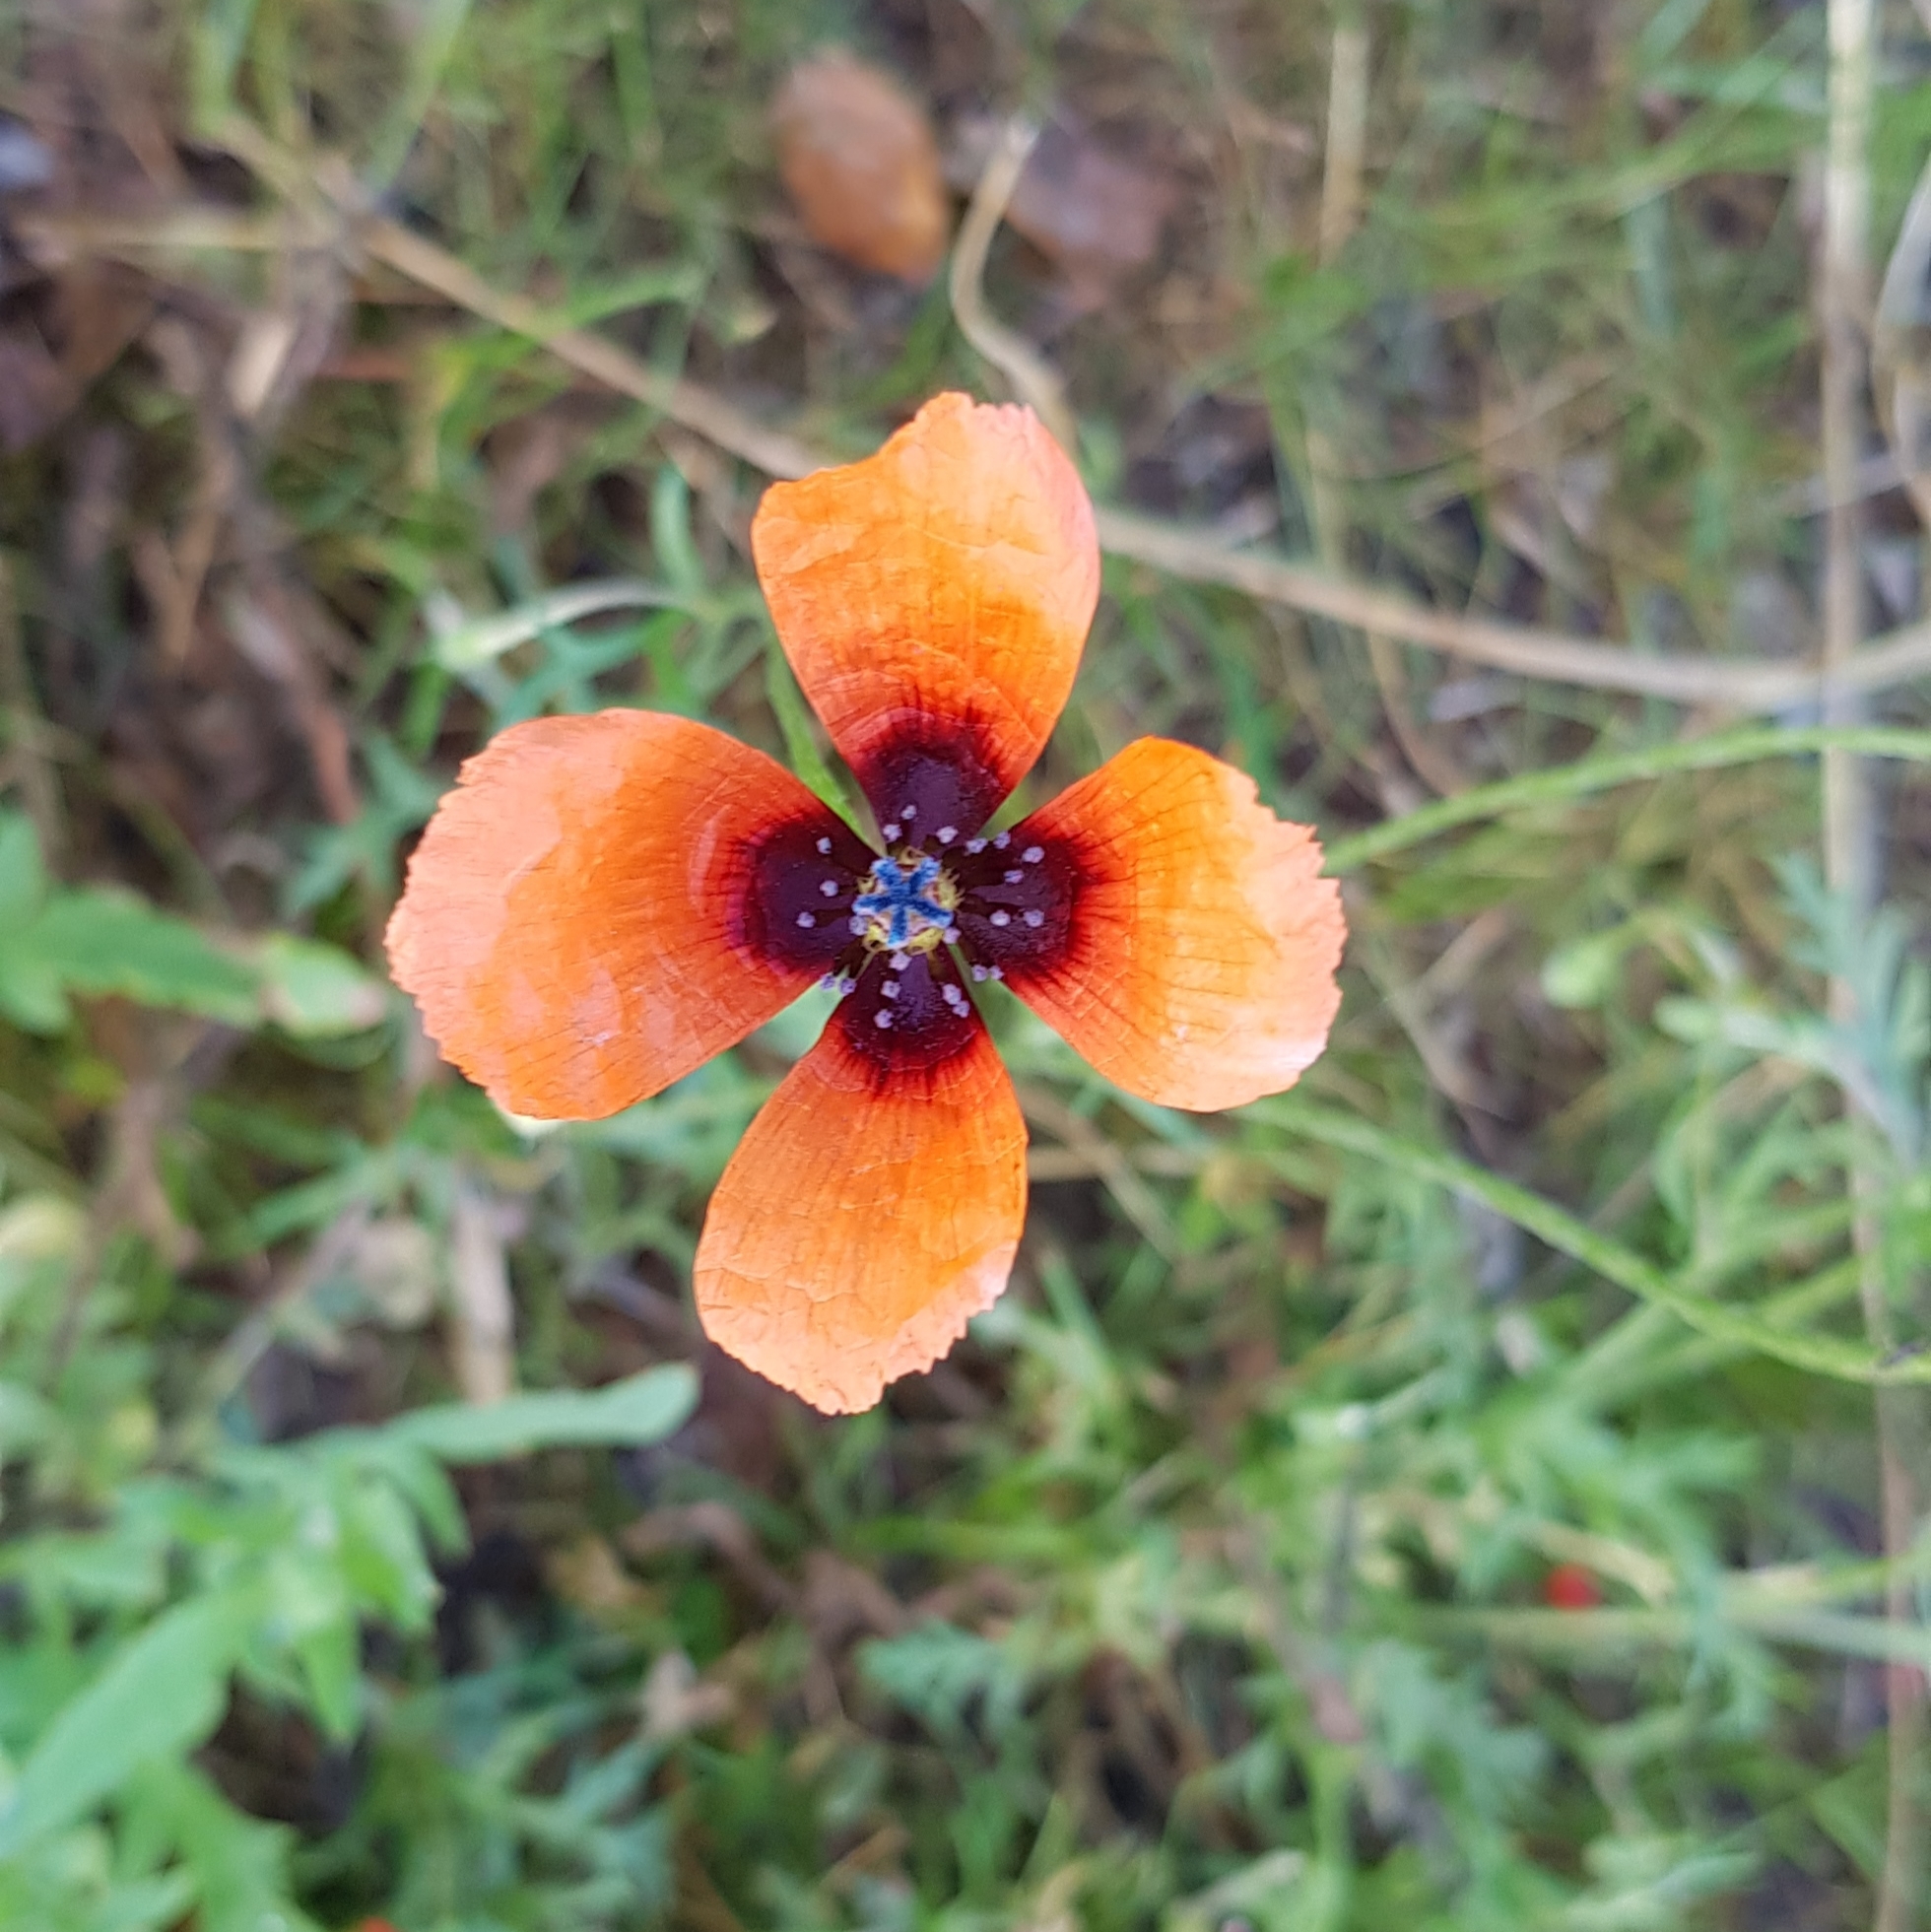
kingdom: Plantae
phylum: Tracheophyta
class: Magnoliopsida
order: Ranunculales
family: Papaveraceae
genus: Roemeria
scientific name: Roemeria argemone
